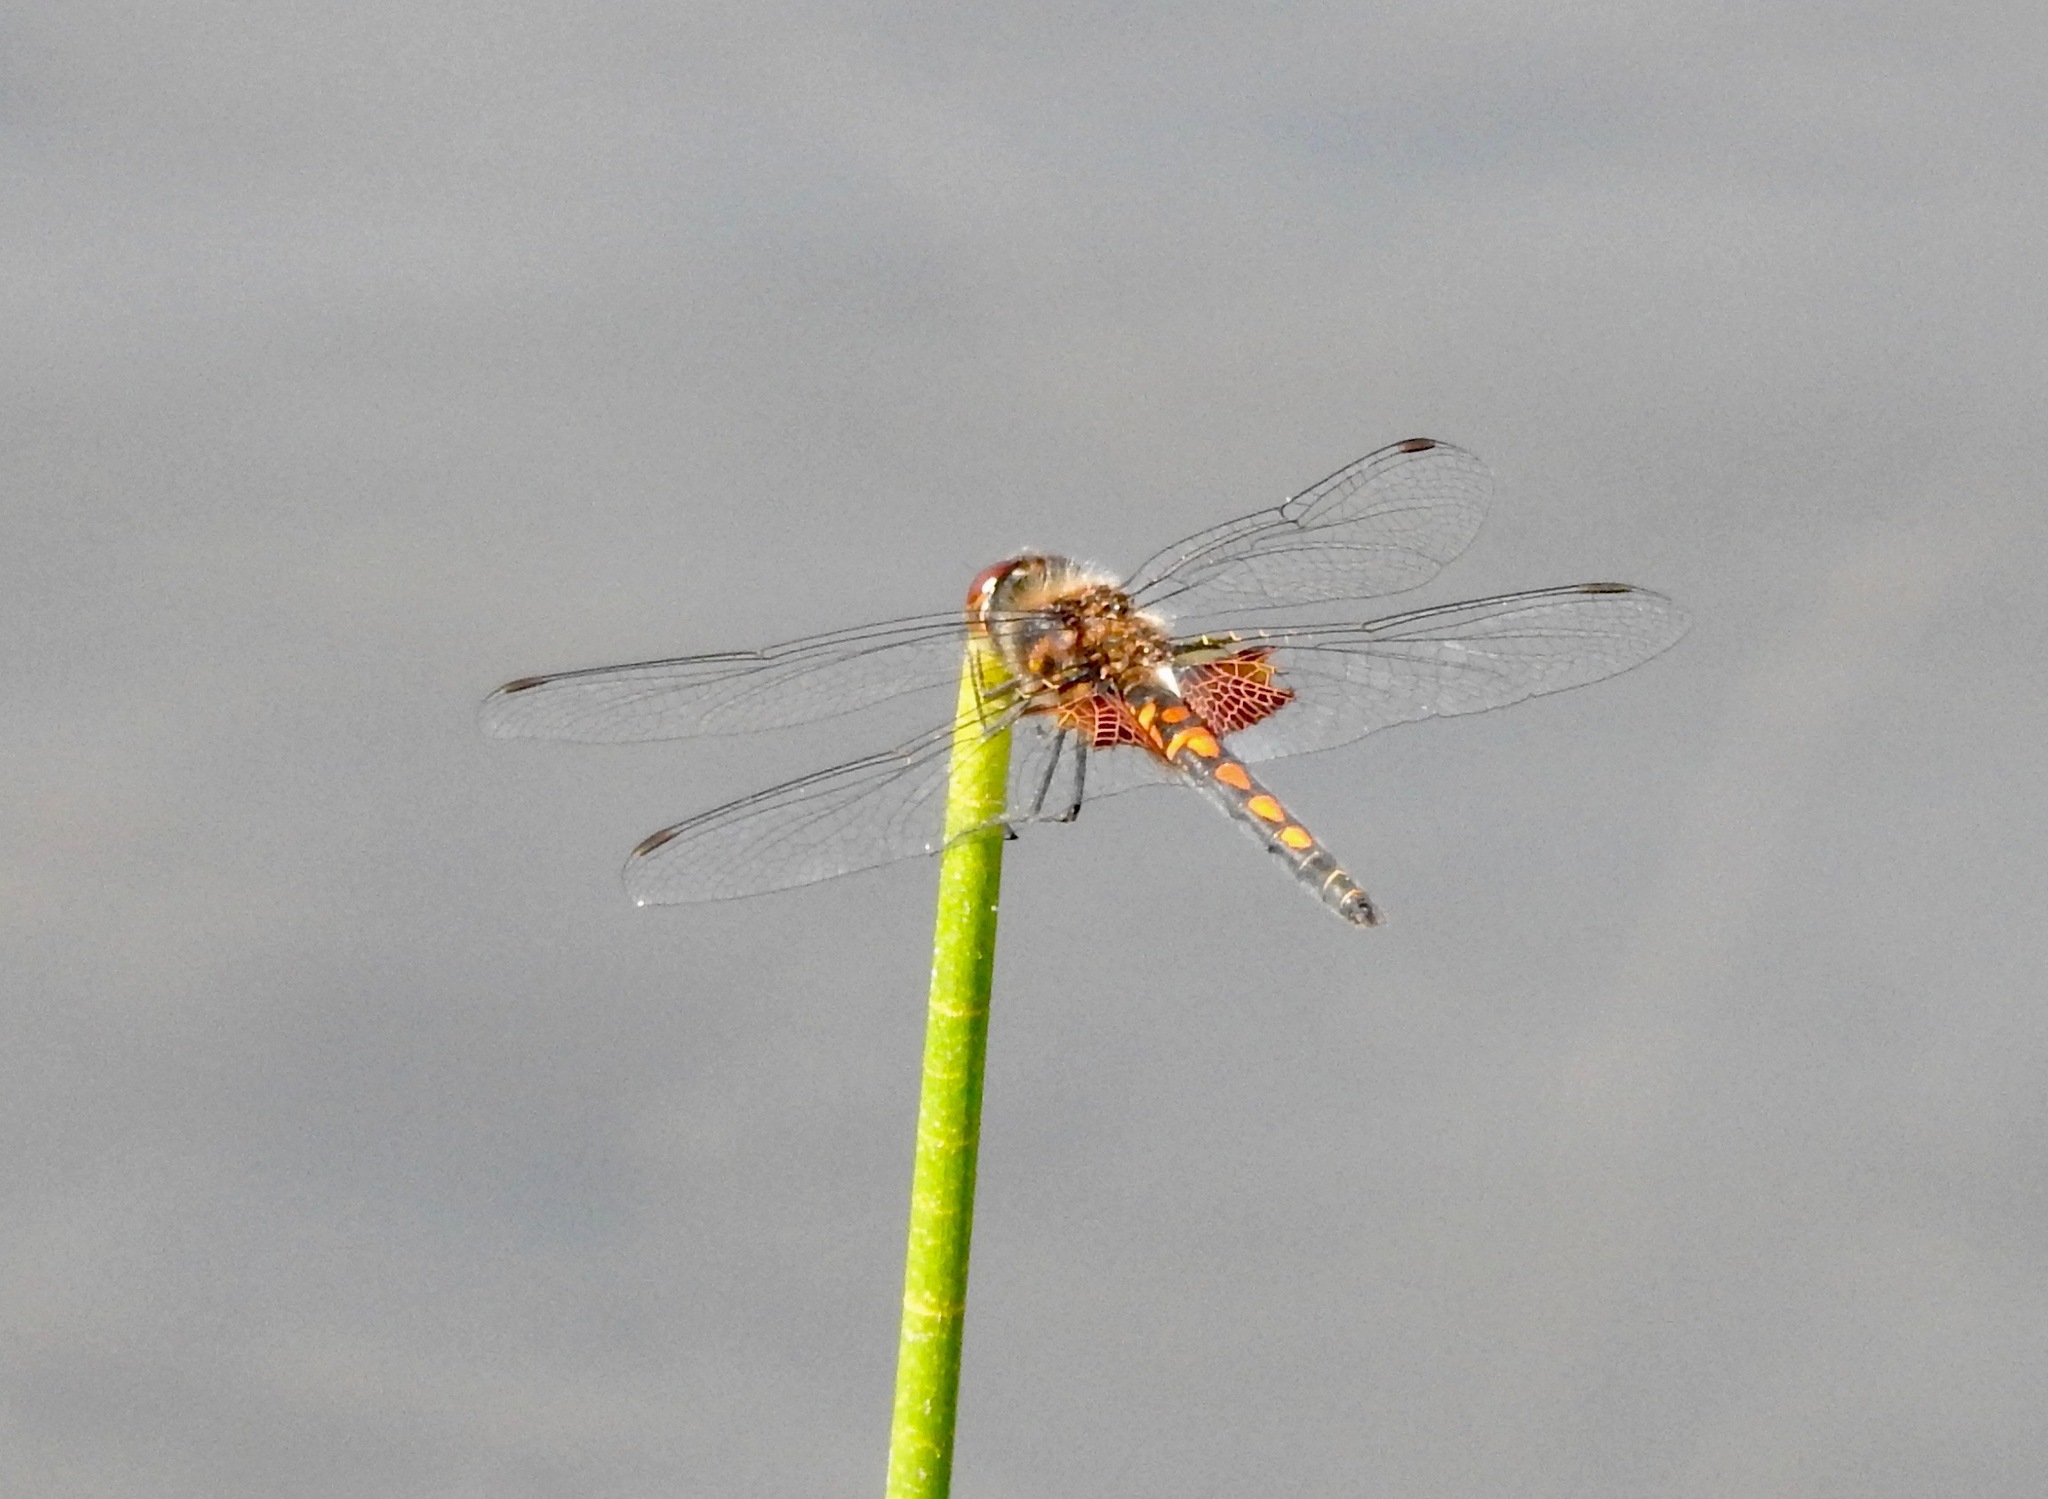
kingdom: Animalia
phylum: Arthropoda
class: Insecta
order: Odonata
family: Libellulidae
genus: Celithemis
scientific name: Celithemis ornata
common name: Ornate pennant
